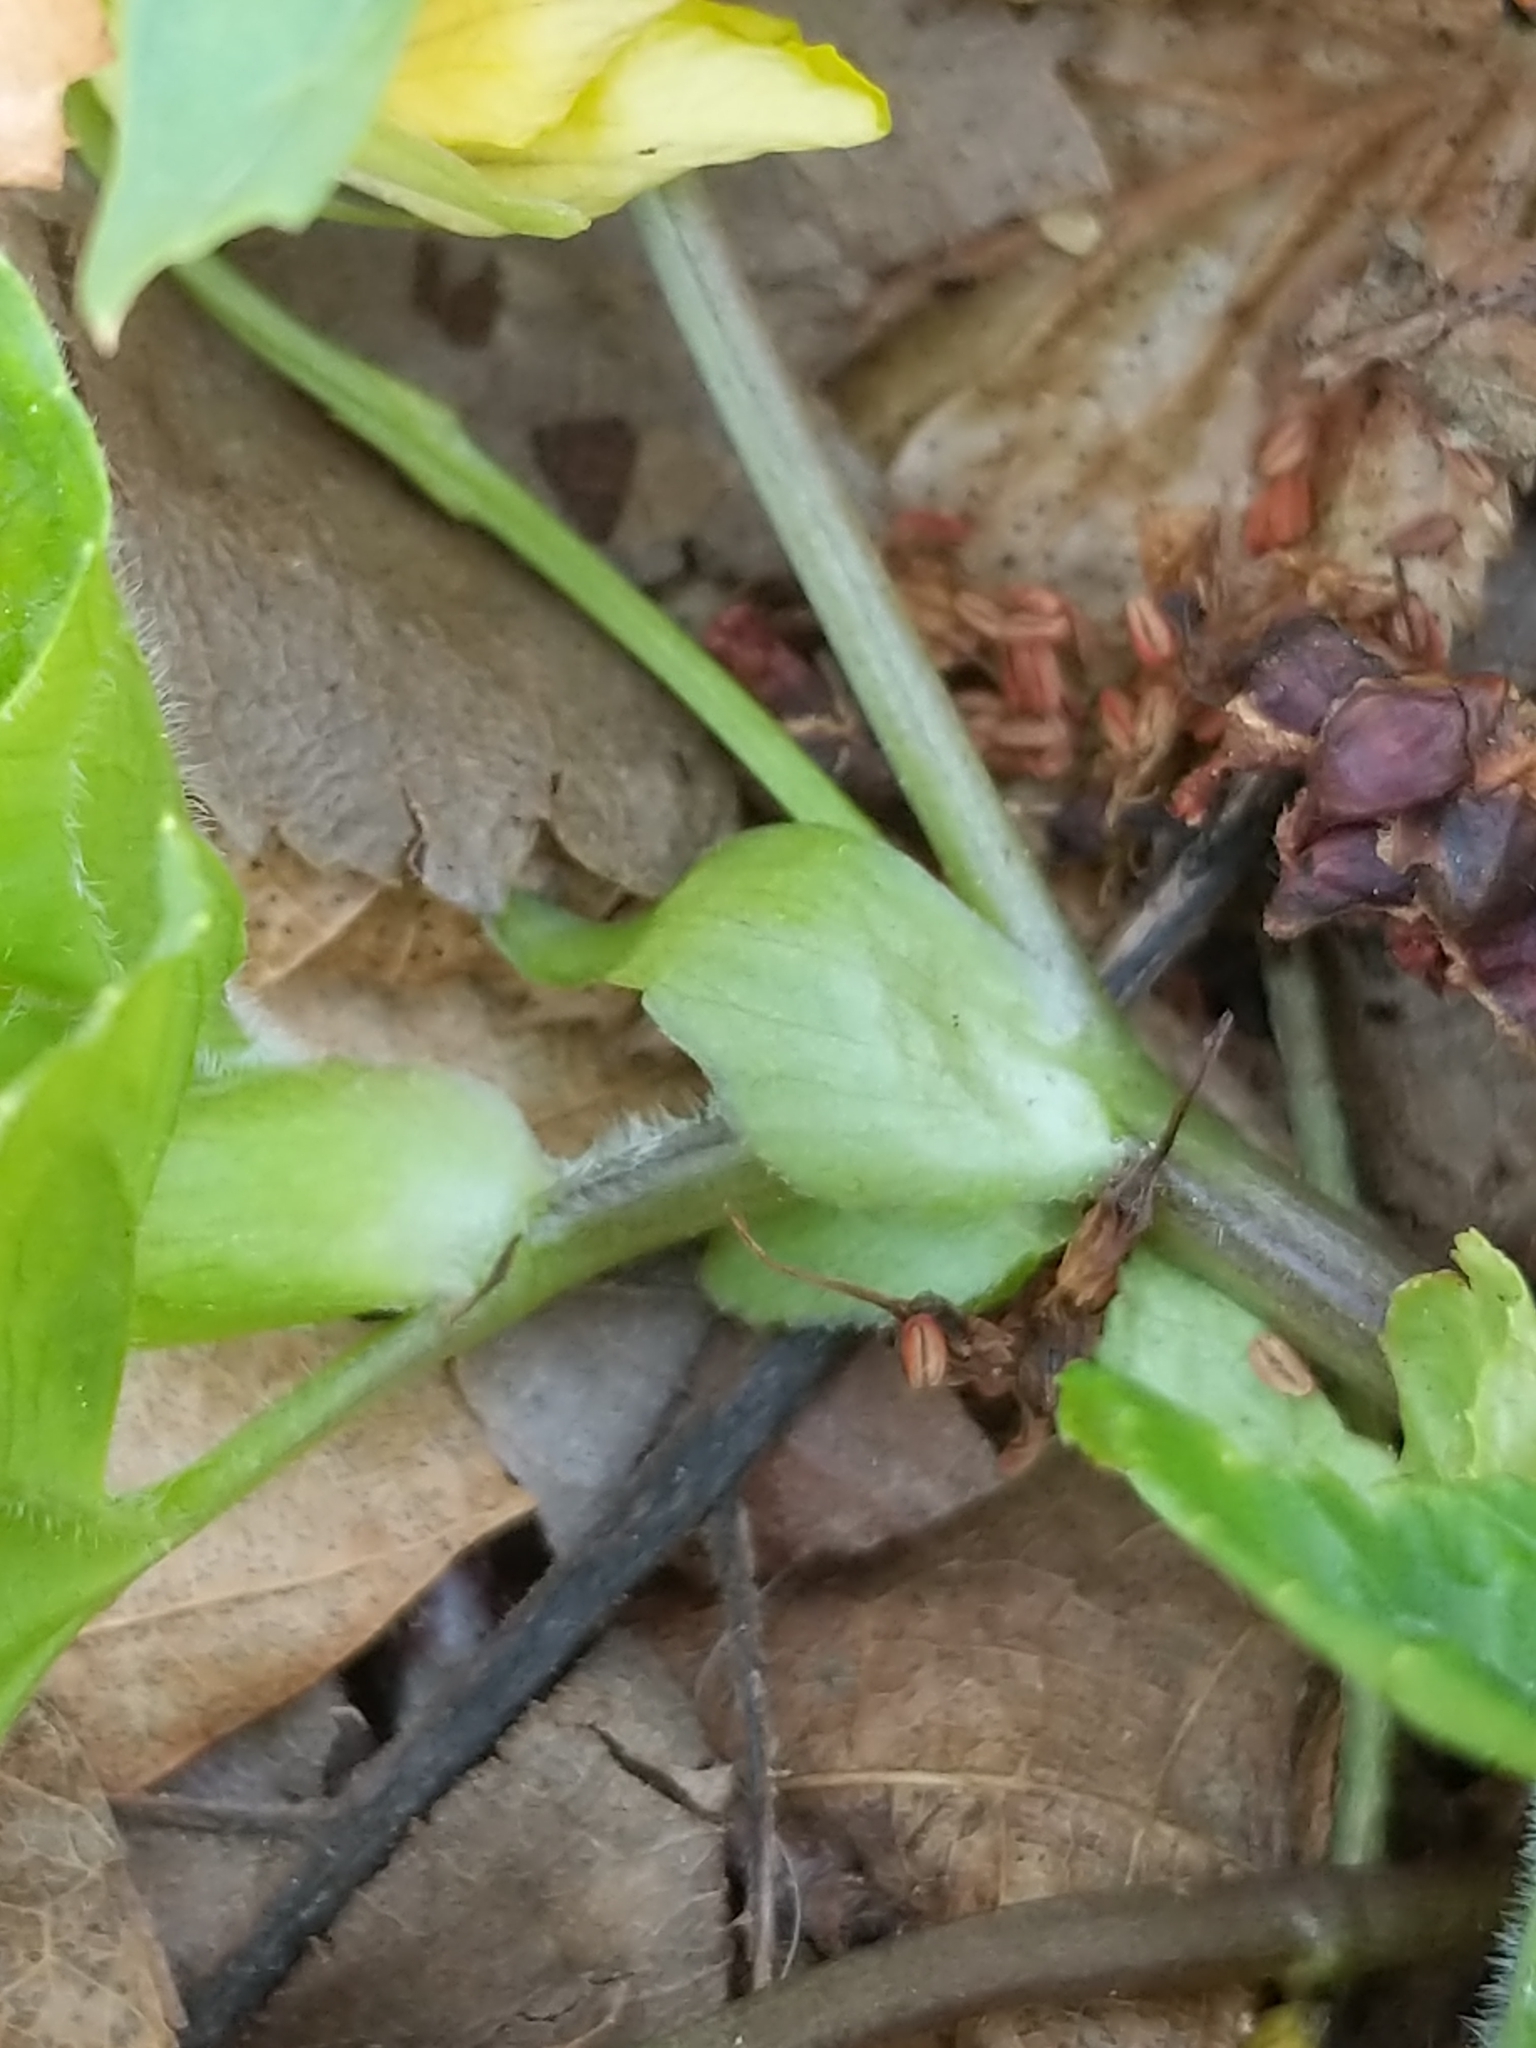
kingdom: Plantae
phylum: Tracheophyta
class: Magnoliopsida
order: Malpighiales
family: Violaceae
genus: Viola
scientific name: Viola eriocarpa
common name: Smooth yellow violet
